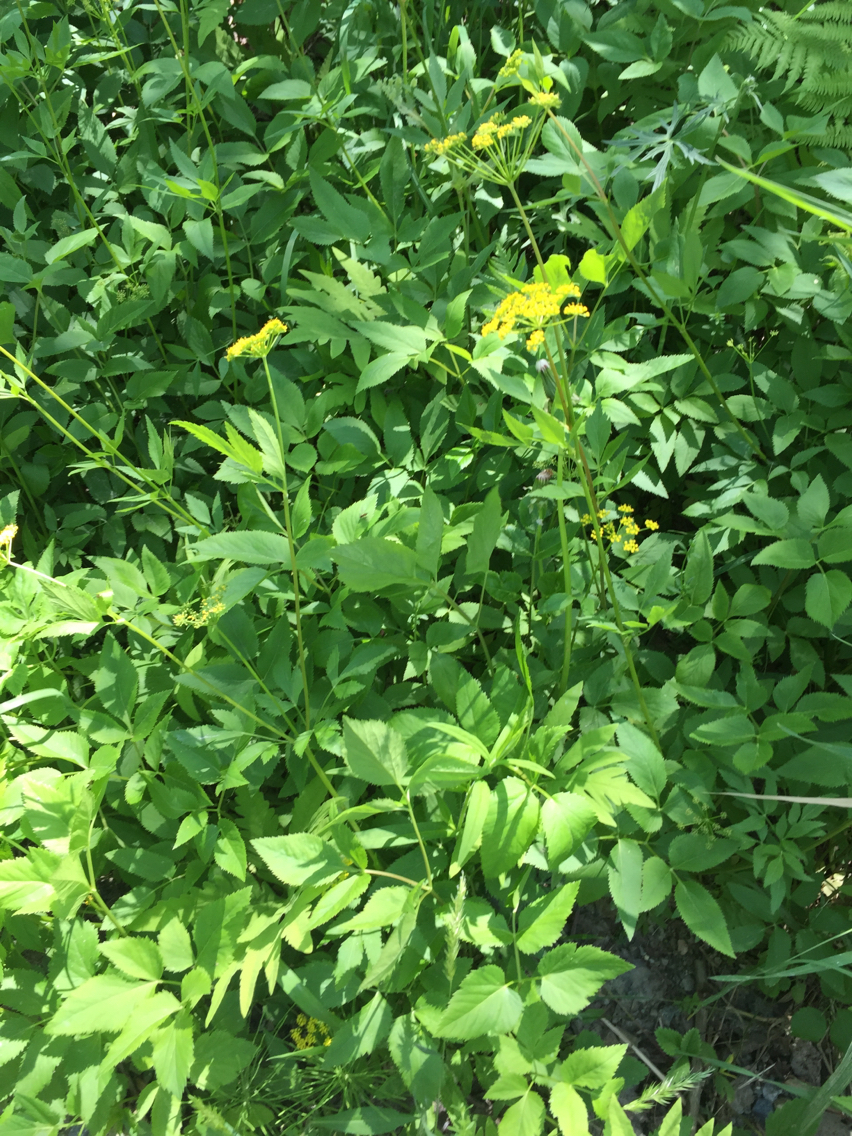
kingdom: Plantae
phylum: Tracheophyta
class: Magnoliopsida
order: Apiales
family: Apiaceae
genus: Zizia
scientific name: Zizia aurea
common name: Golden alexanders
